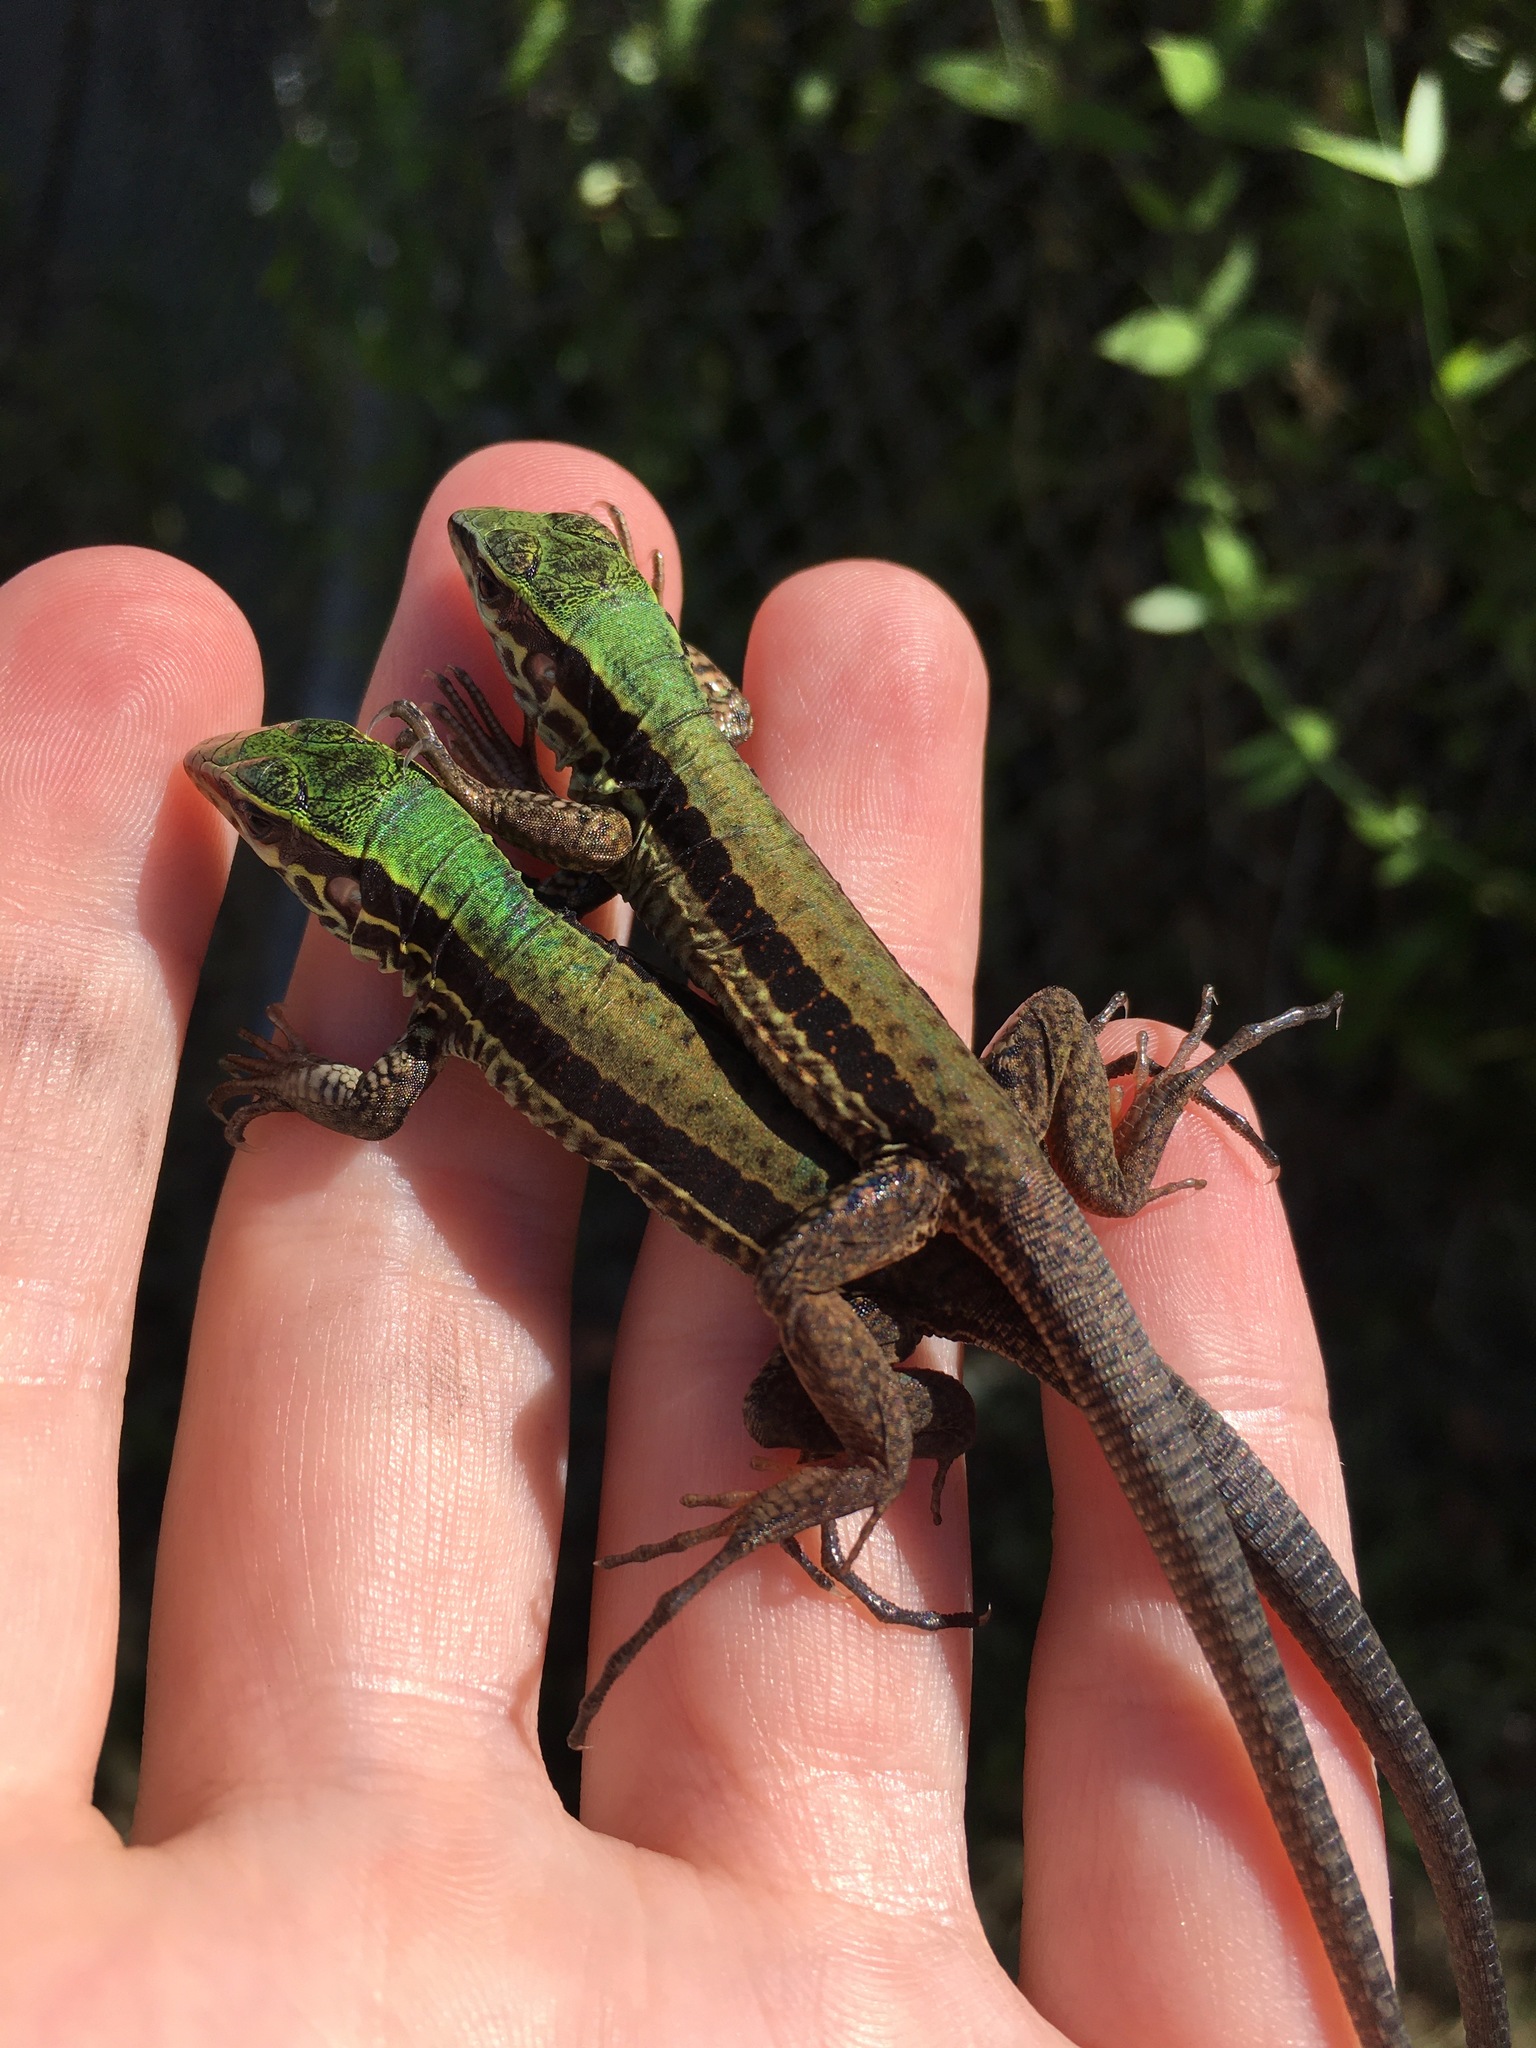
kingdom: Animalia
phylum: Chordata
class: Squamata
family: Teiidae
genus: Ameiva
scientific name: Ameiva ameiva
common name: Giant ameiva
